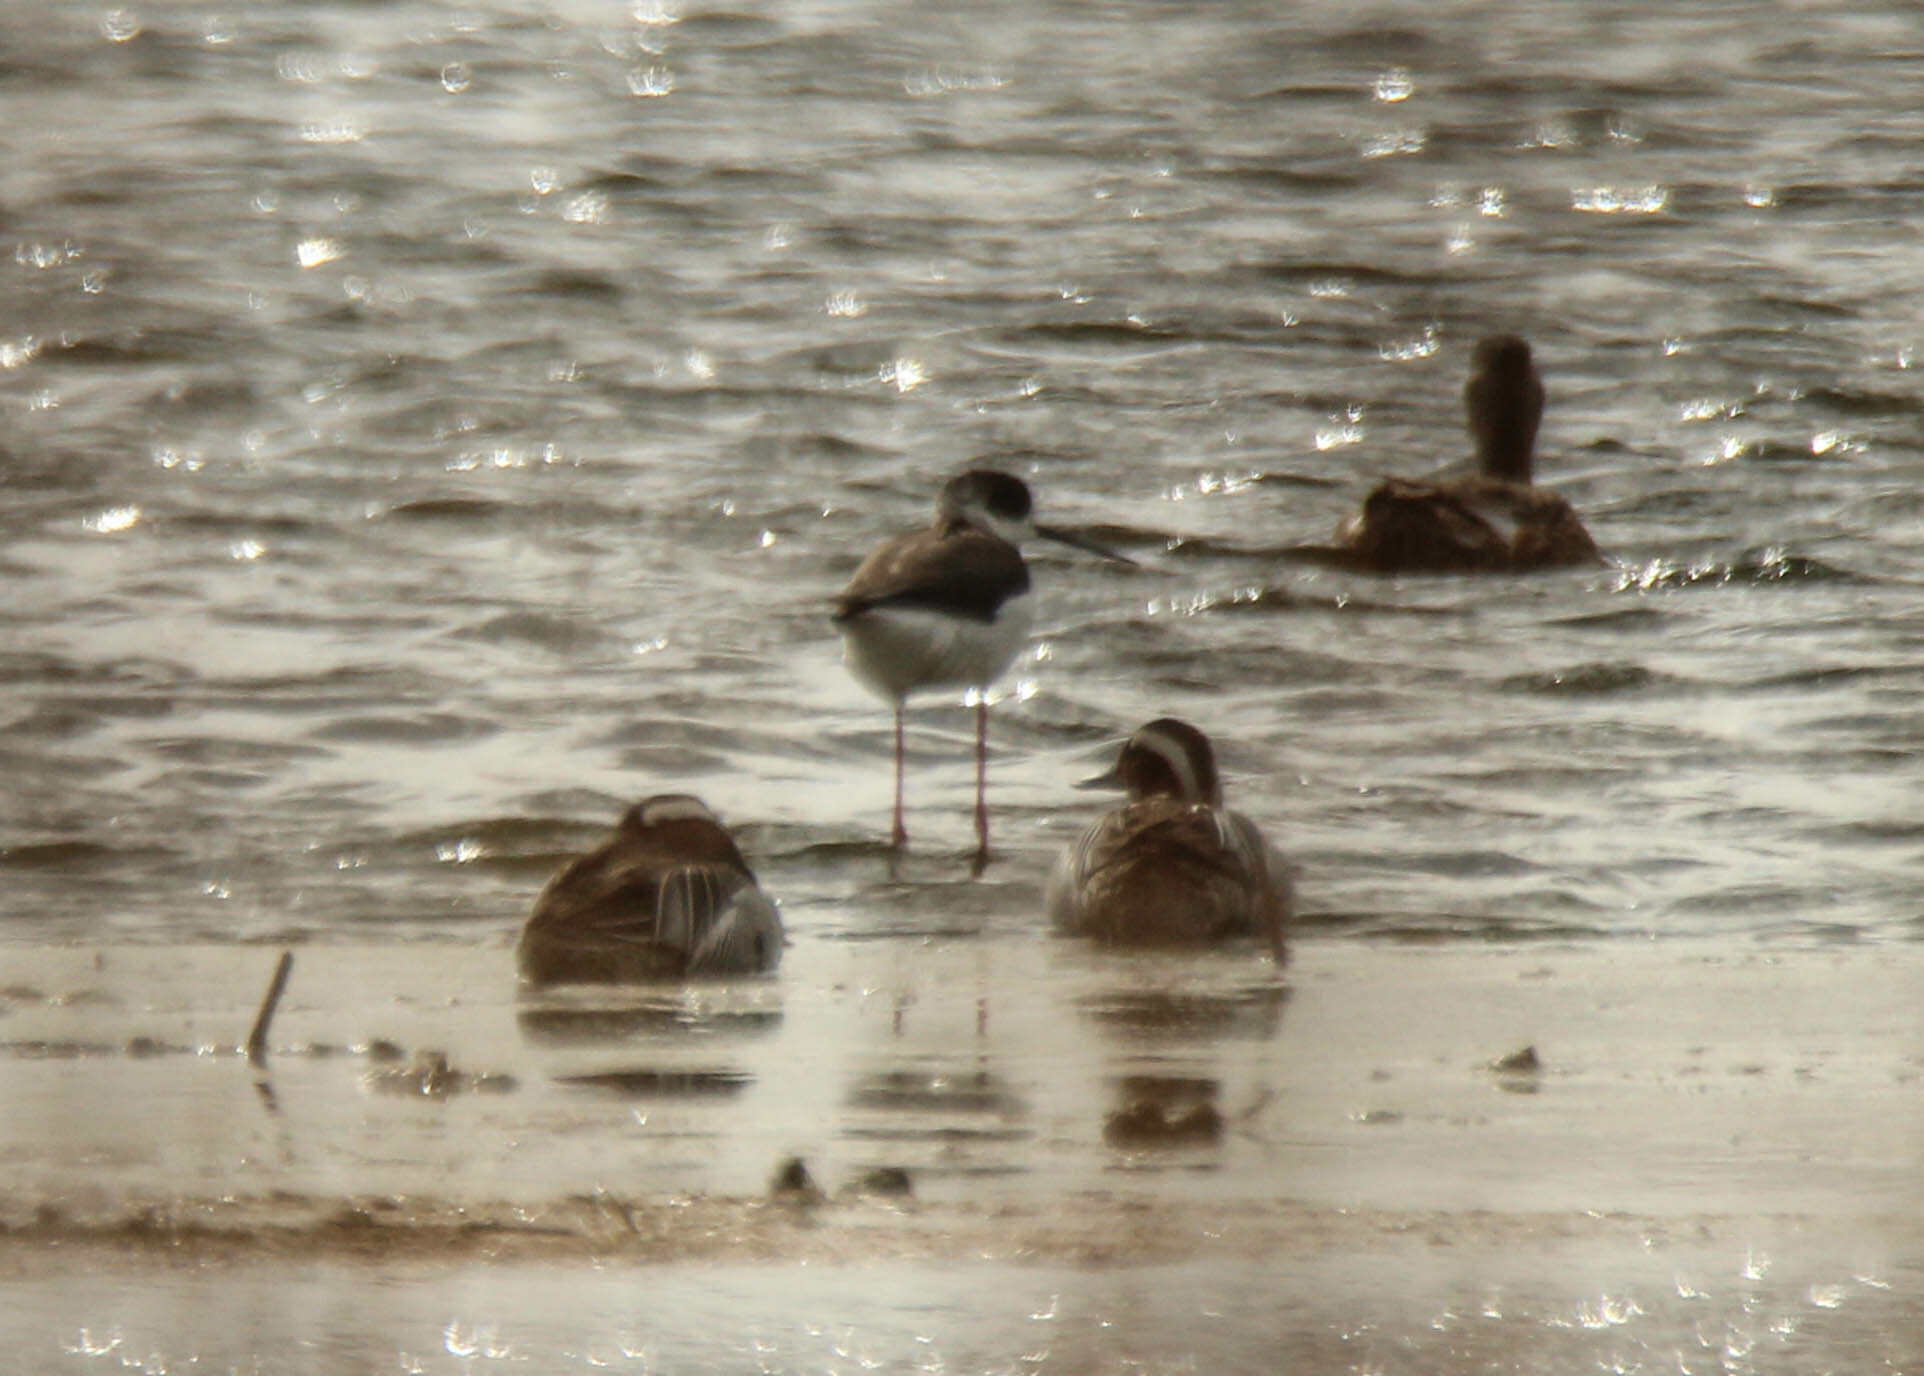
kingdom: Animalia
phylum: Chordata
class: Aves
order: Anseriformes
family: Anatidae
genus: Spatula
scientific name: Spatula querquedula
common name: Garganey
